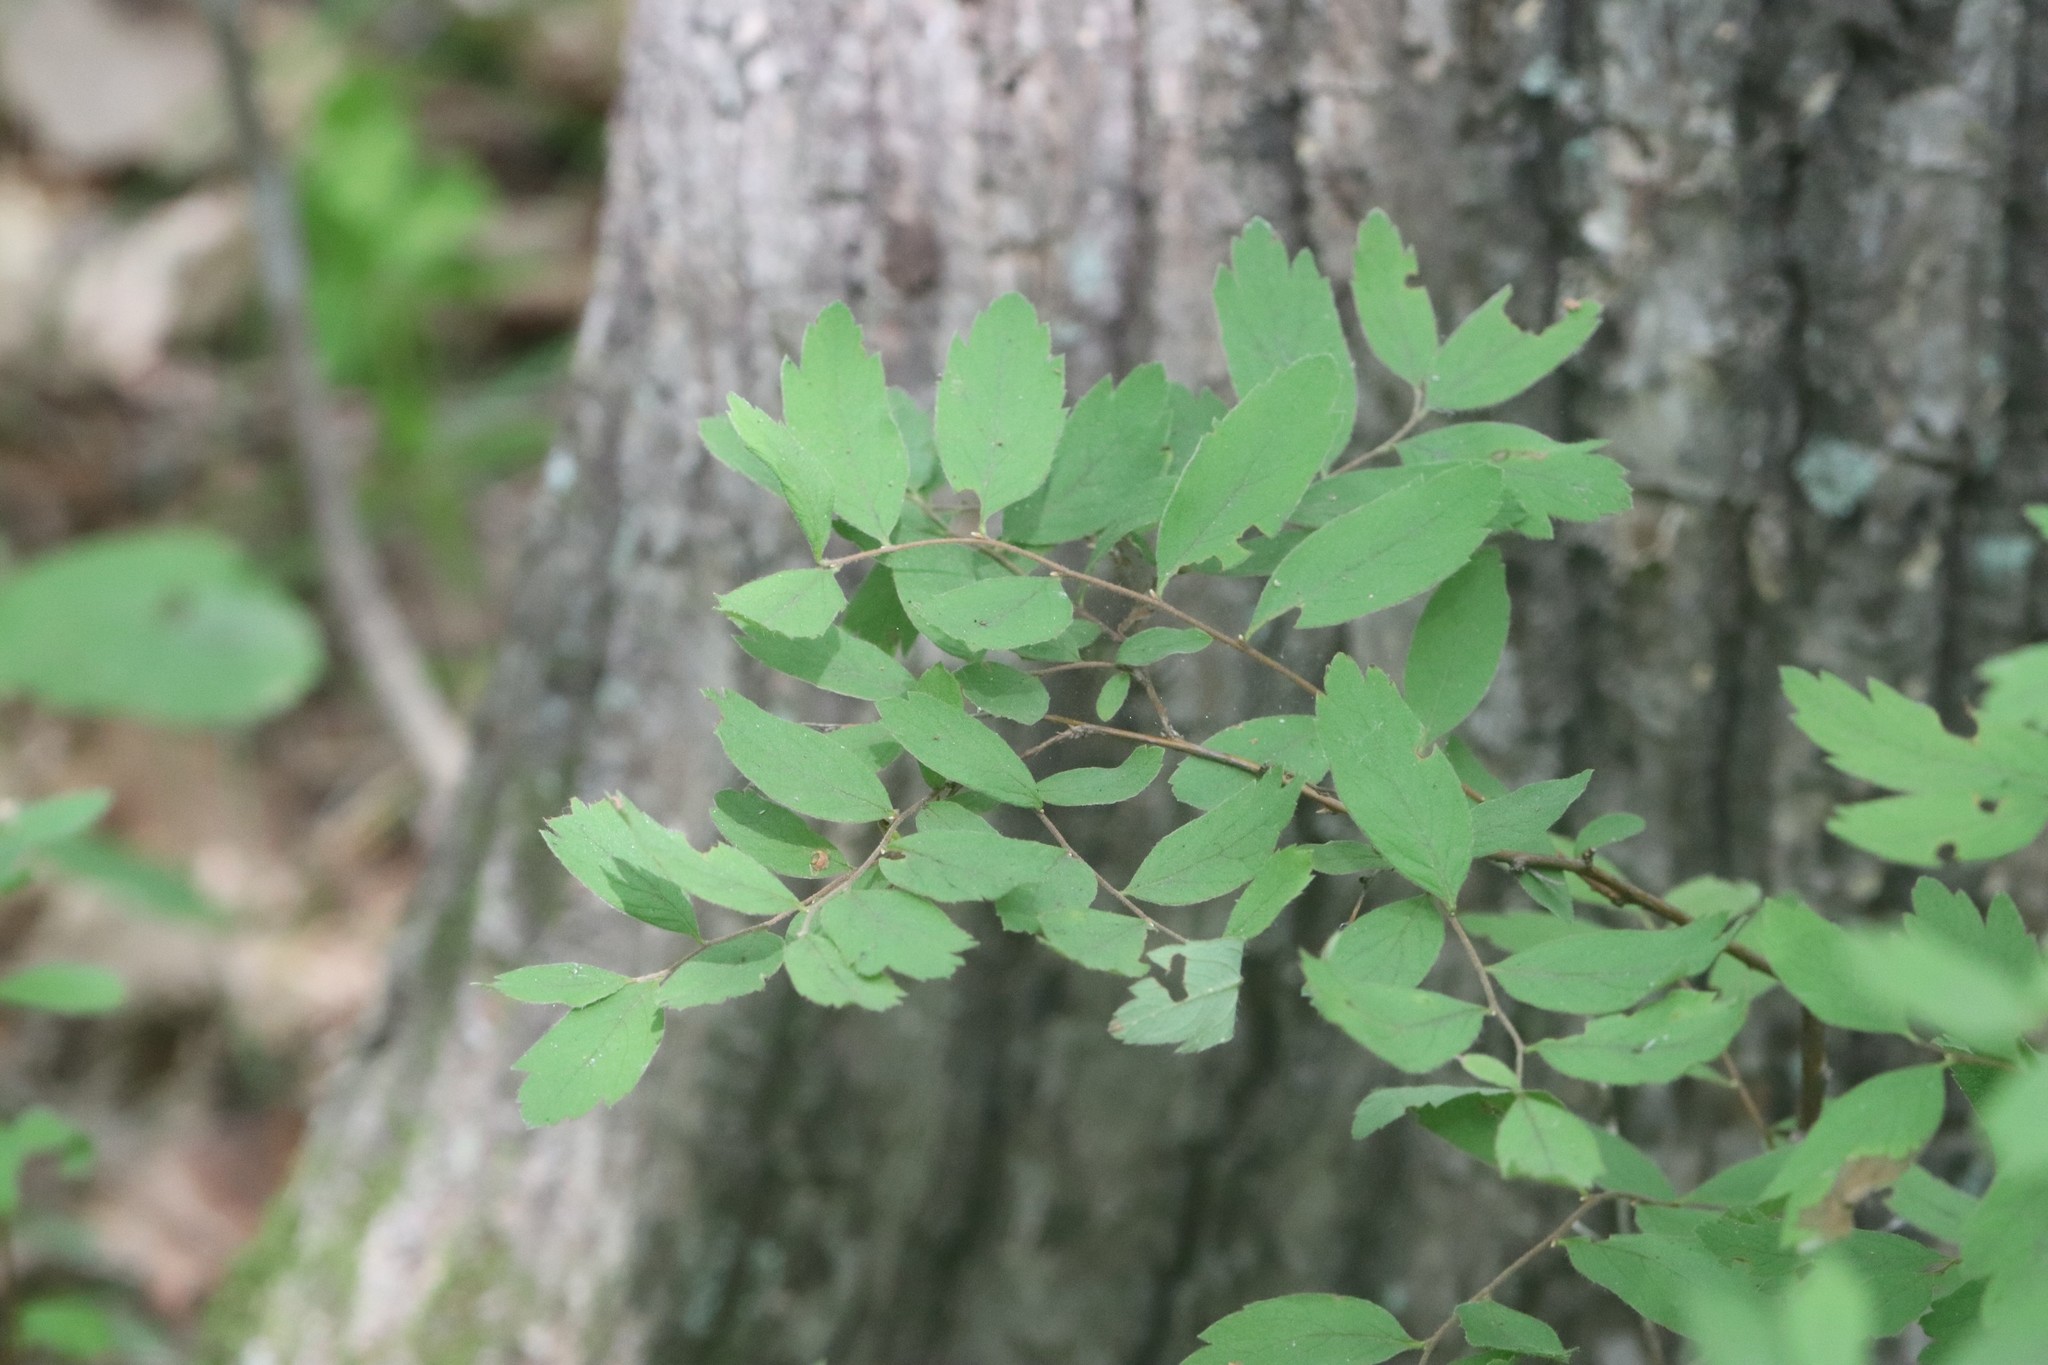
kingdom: Plantae
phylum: Tracheophyta
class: Magnoliopsida
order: Rosales
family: Rosaceae
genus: Spiraea
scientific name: Spiraea media
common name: Russian spiraea
